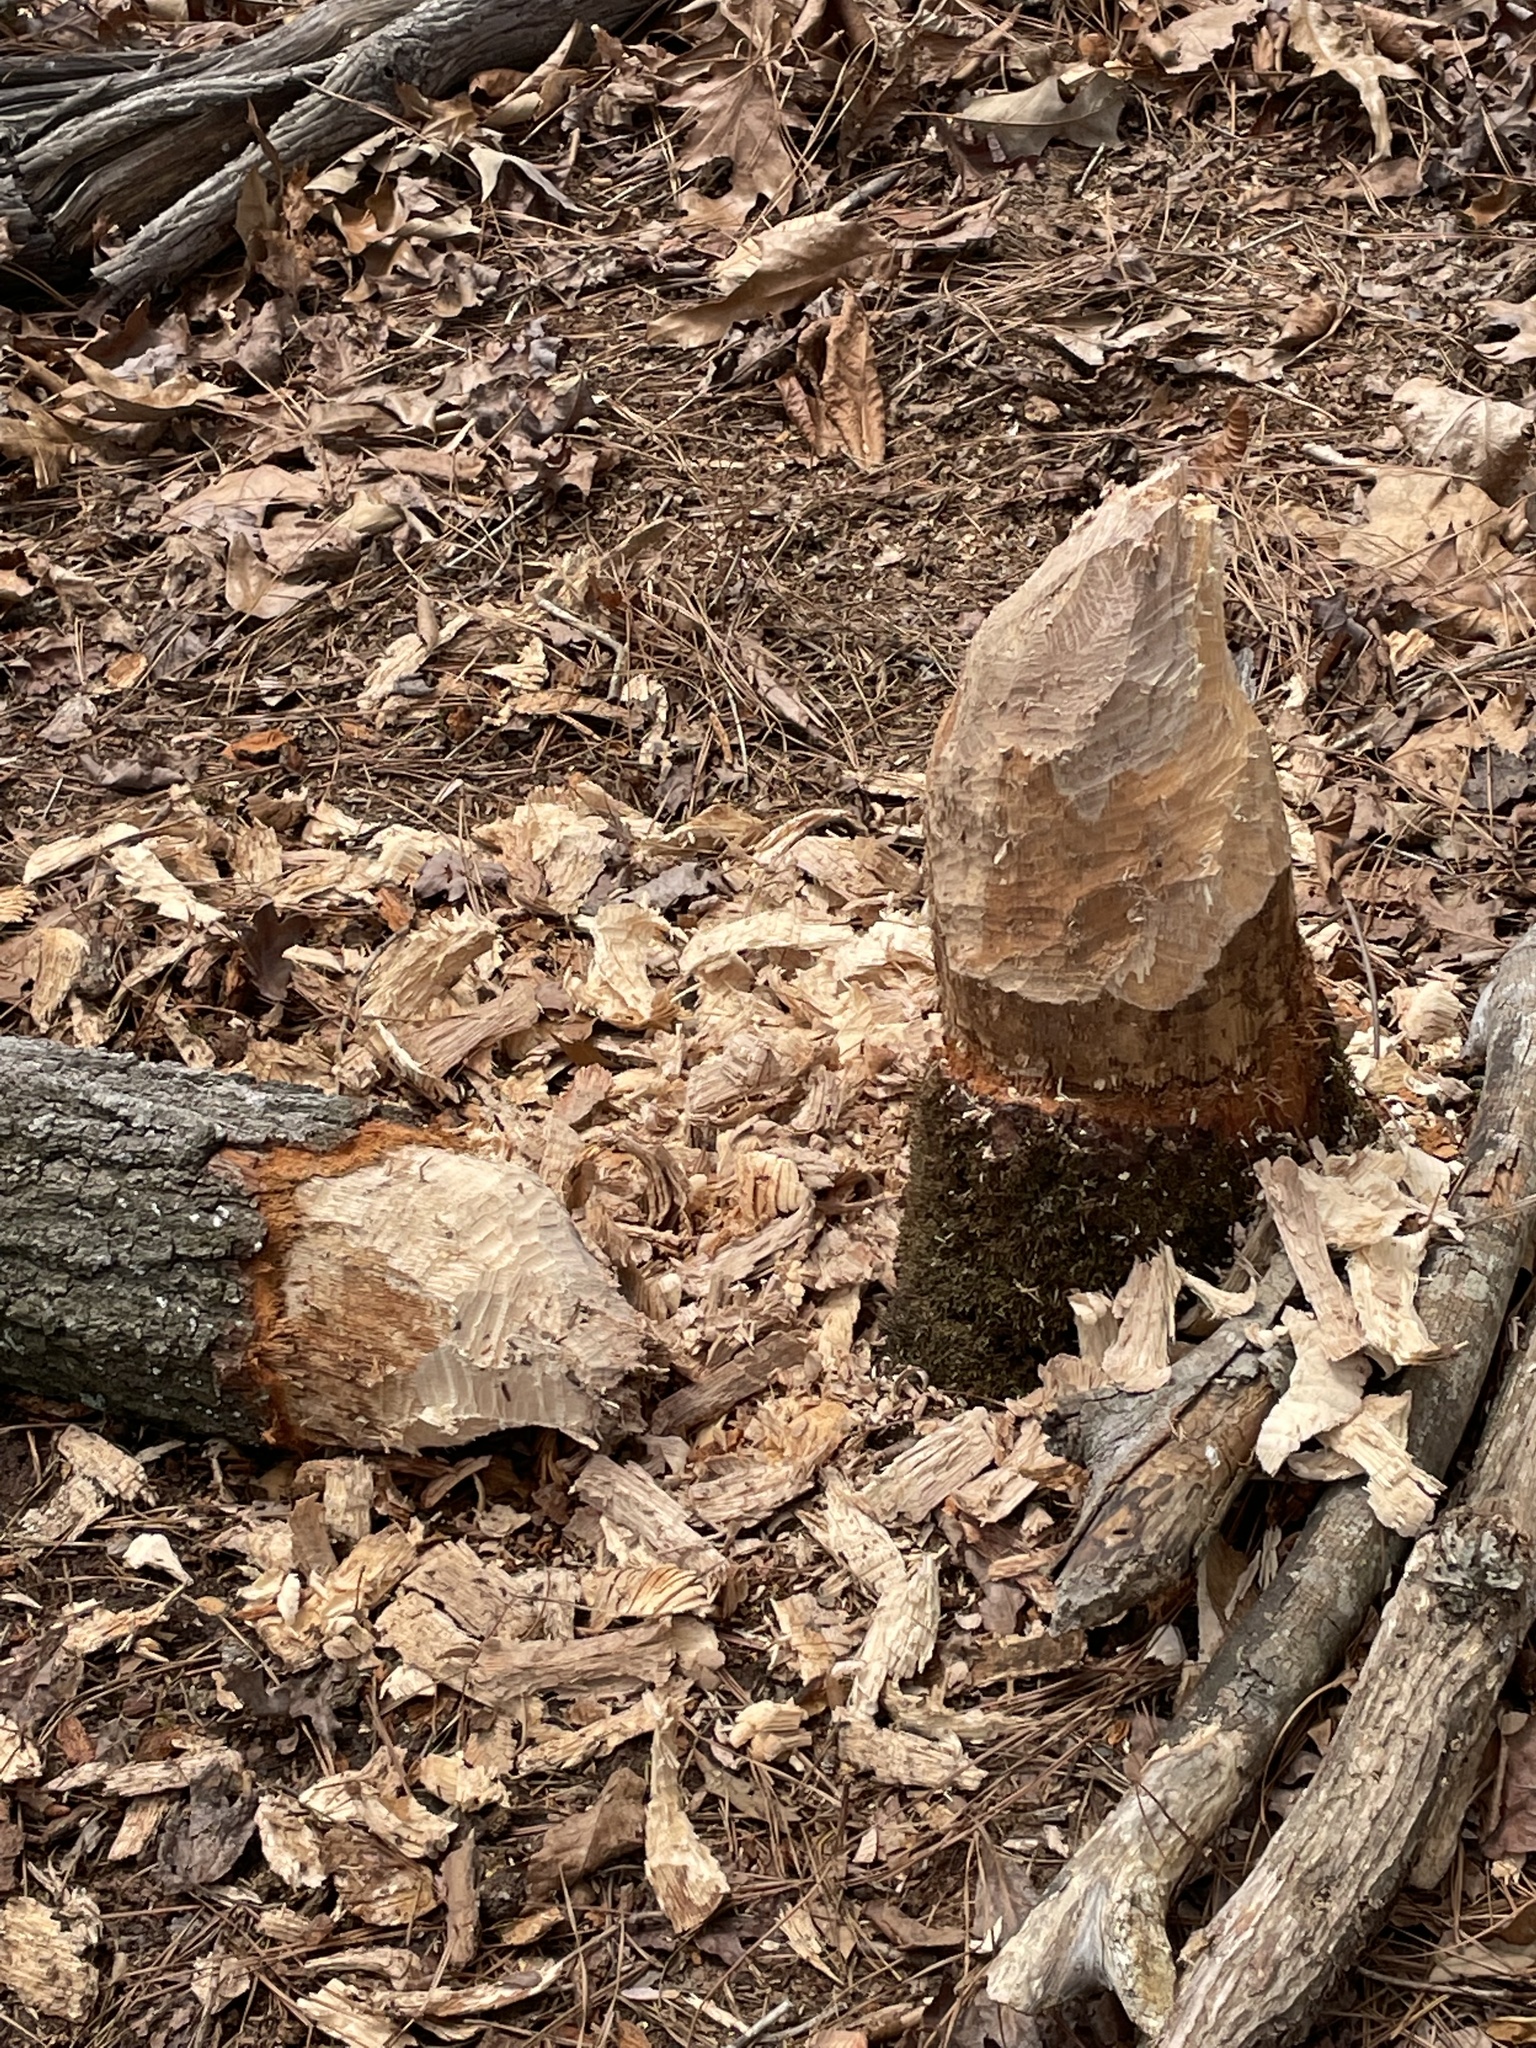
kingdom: Animalia
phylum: Chordata
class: Mammalia
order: Rodentia
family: Castoridae
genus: Castor
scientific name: Castor canadensis
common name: American beaver
